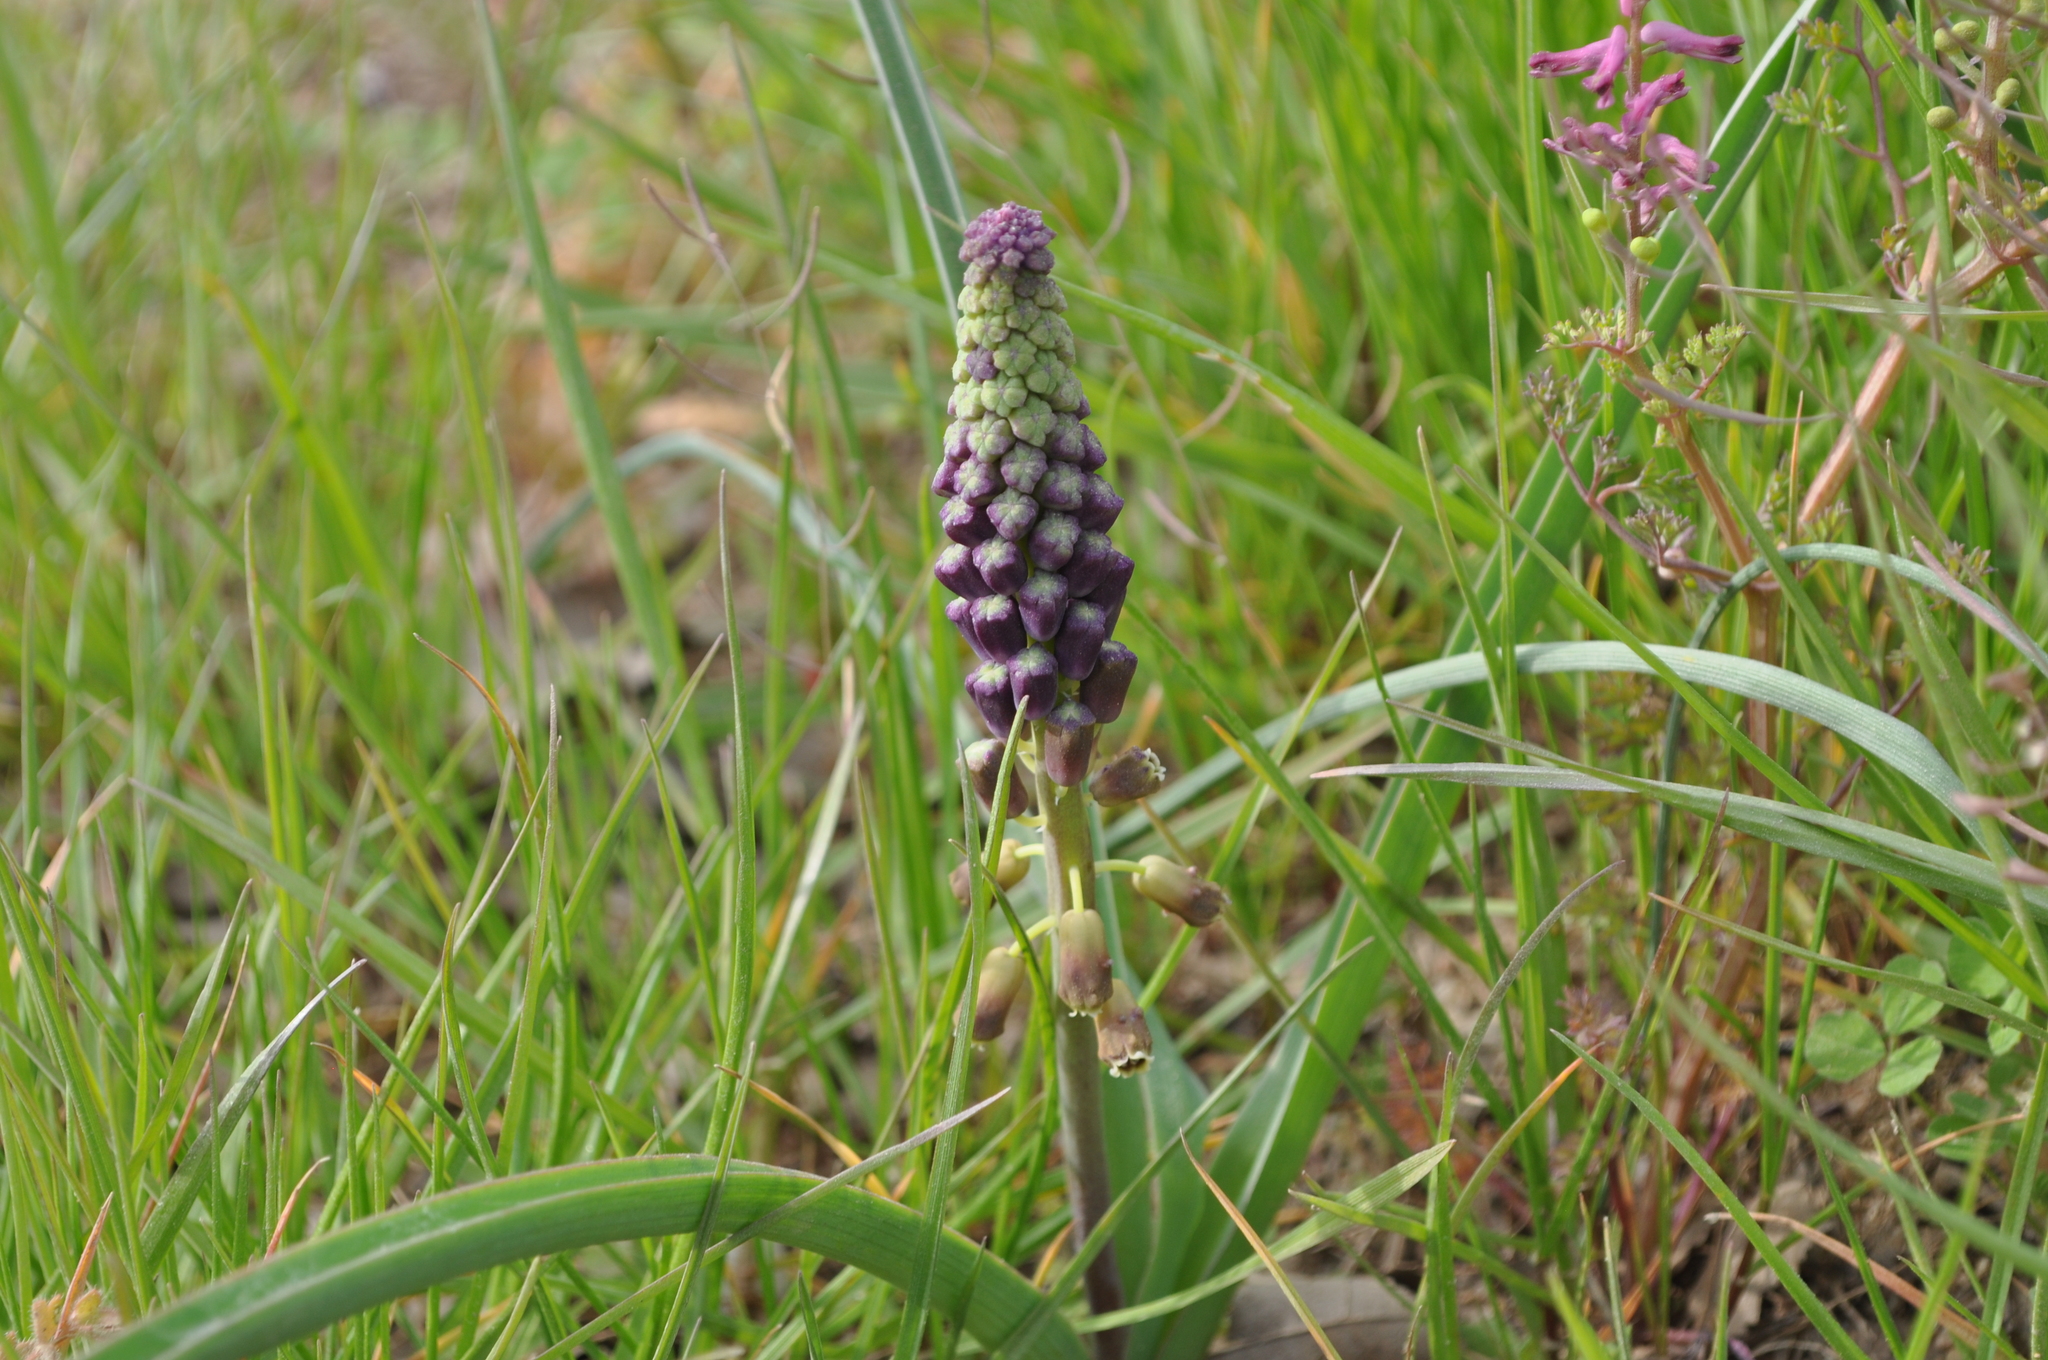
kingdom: Plantae
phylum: Tracheophyta
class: Liliopsida
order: Asparagales
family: Asparagaceae
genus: Muscari
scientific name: Muscari comosum
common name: Tassel hyacinth
